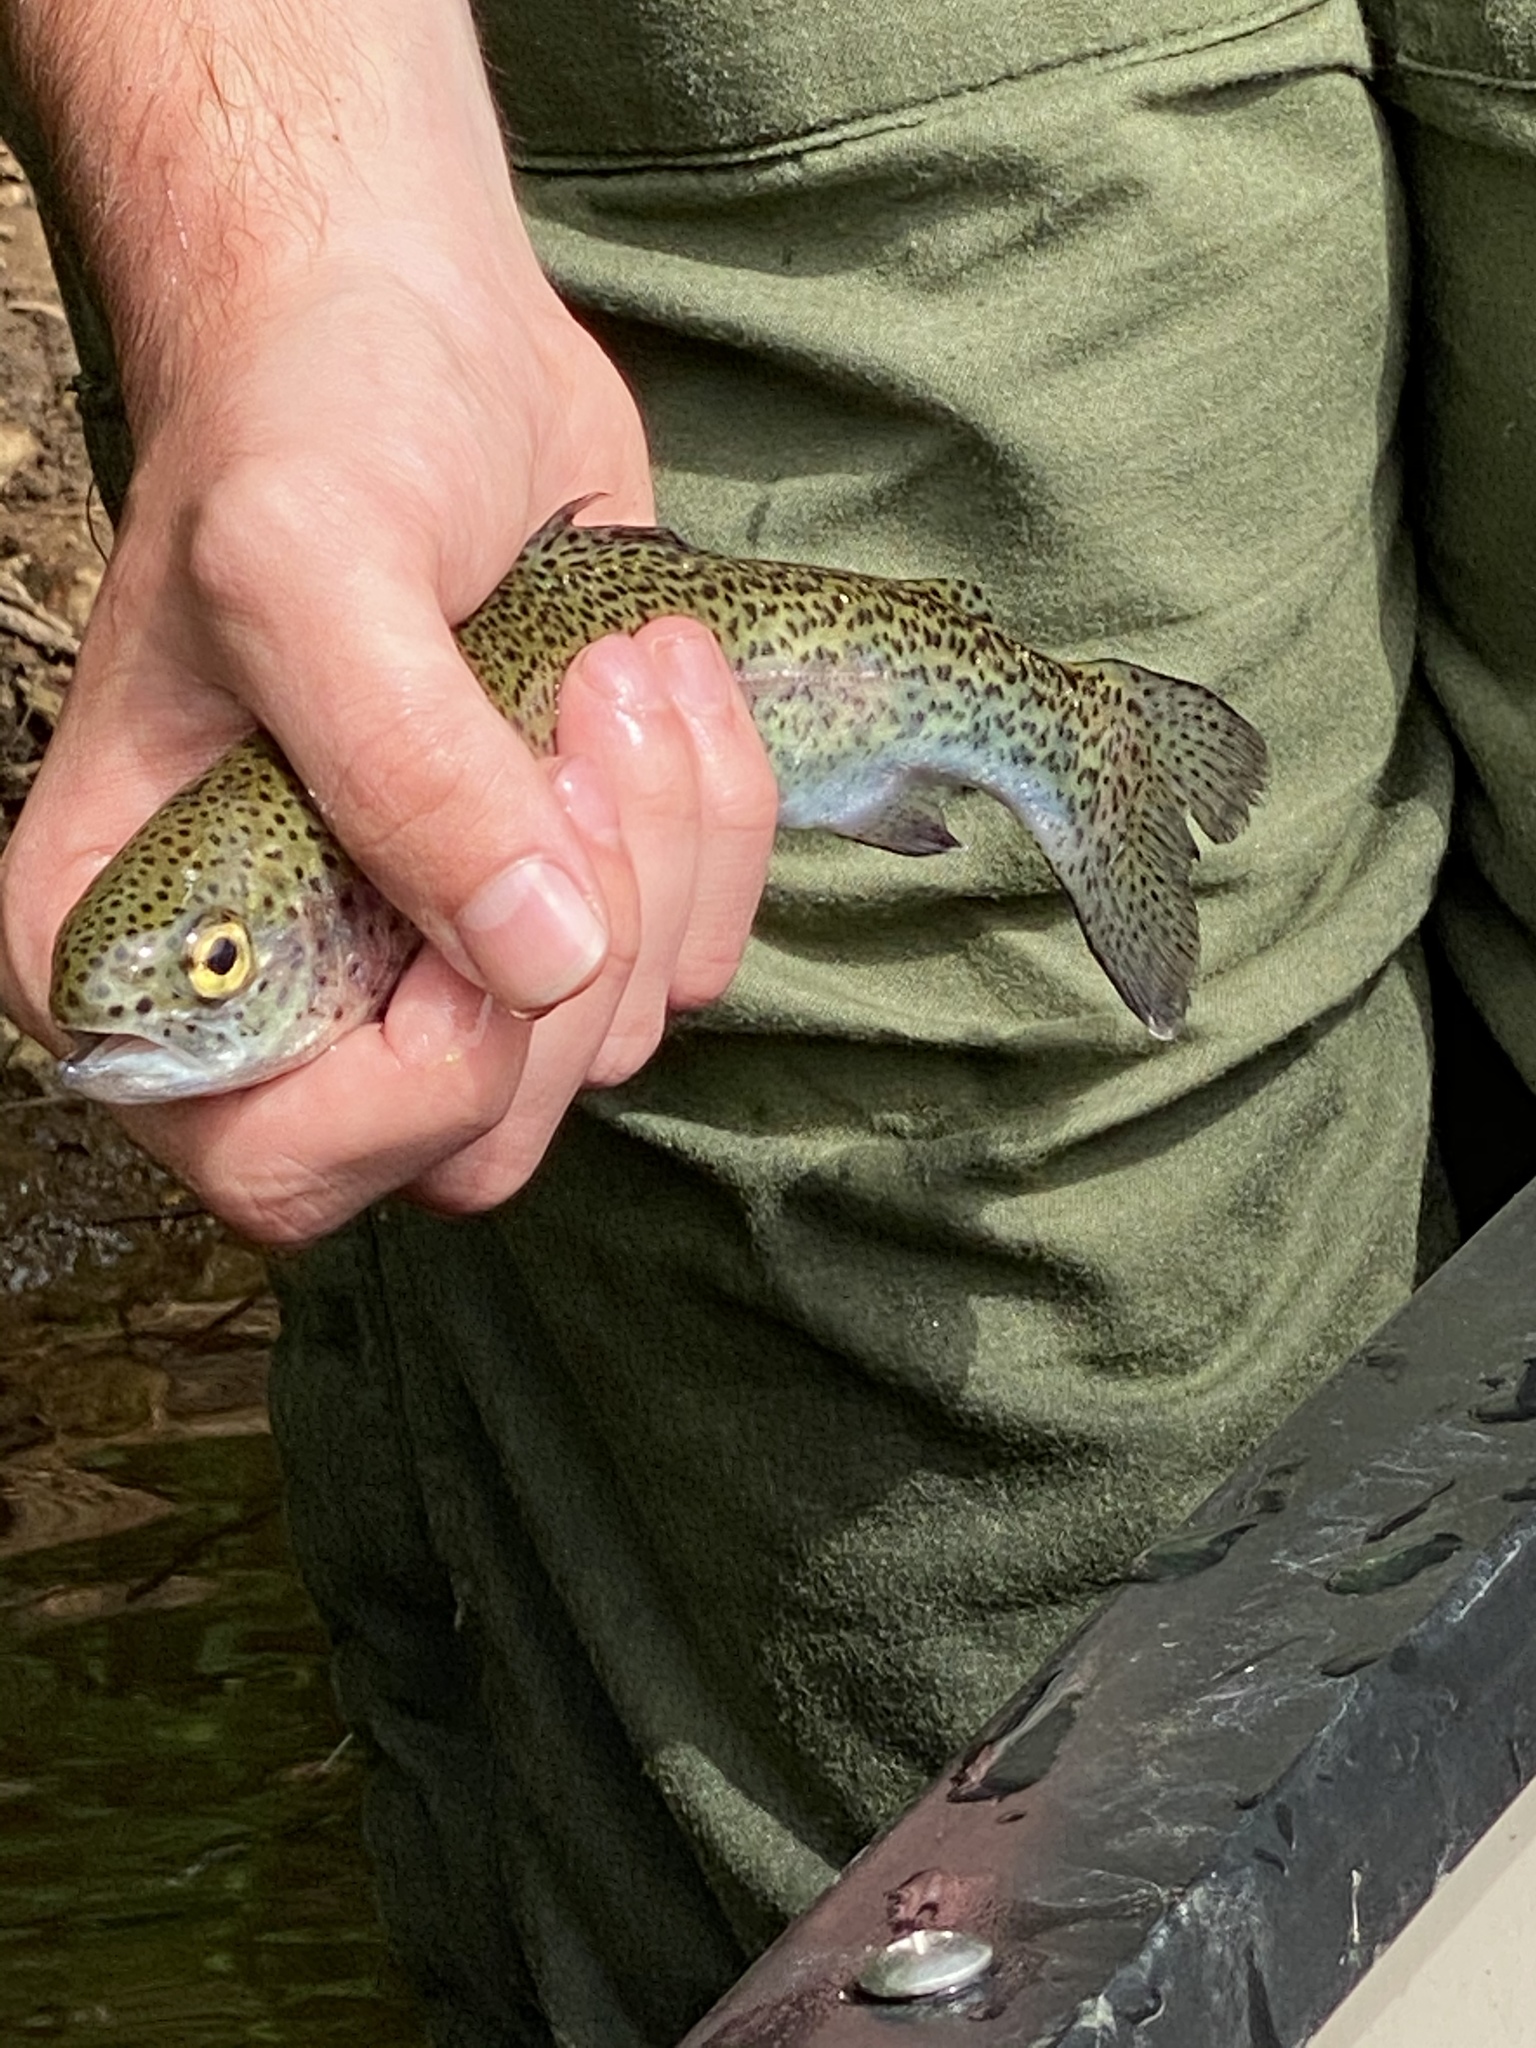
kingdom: Animalia
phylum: Chordata
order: Salmoniformes
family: Salmonidae
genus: Oncorhynchus
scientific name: Oncorhynchus mykiss
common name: Rainbow trout
